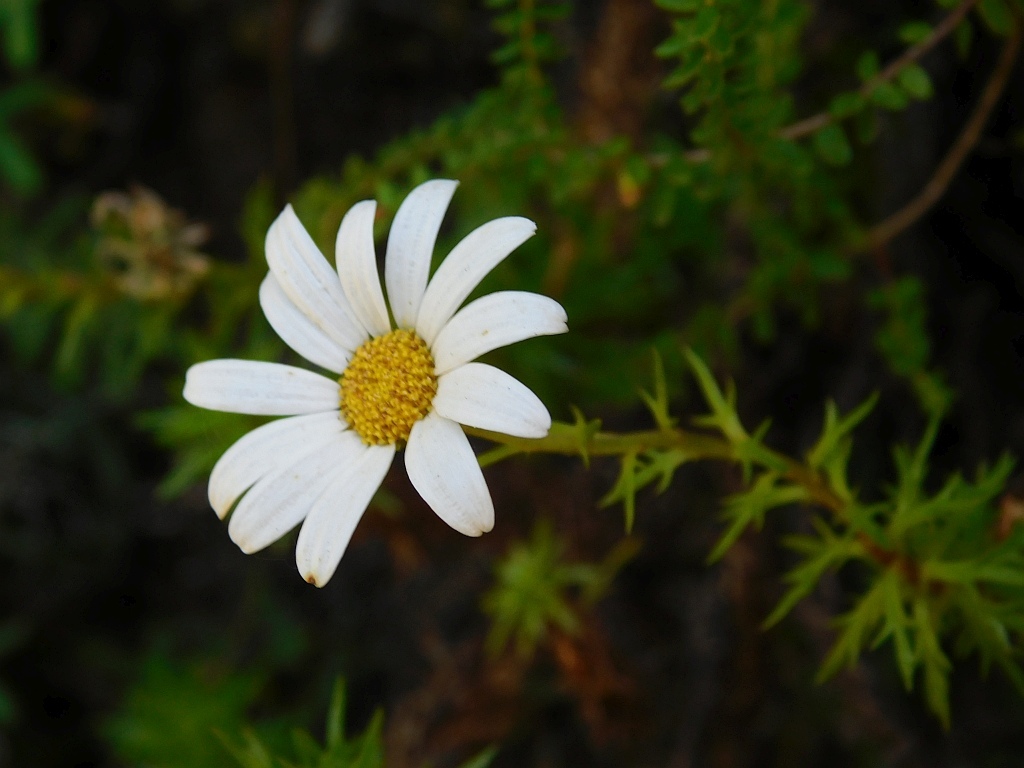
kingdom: Plantae
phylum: Tracheophyta
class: Magnoliopsida
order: Asterales
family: Asteraceae
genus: Osmitopsis
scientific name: Osmitopsis pinnatifida
